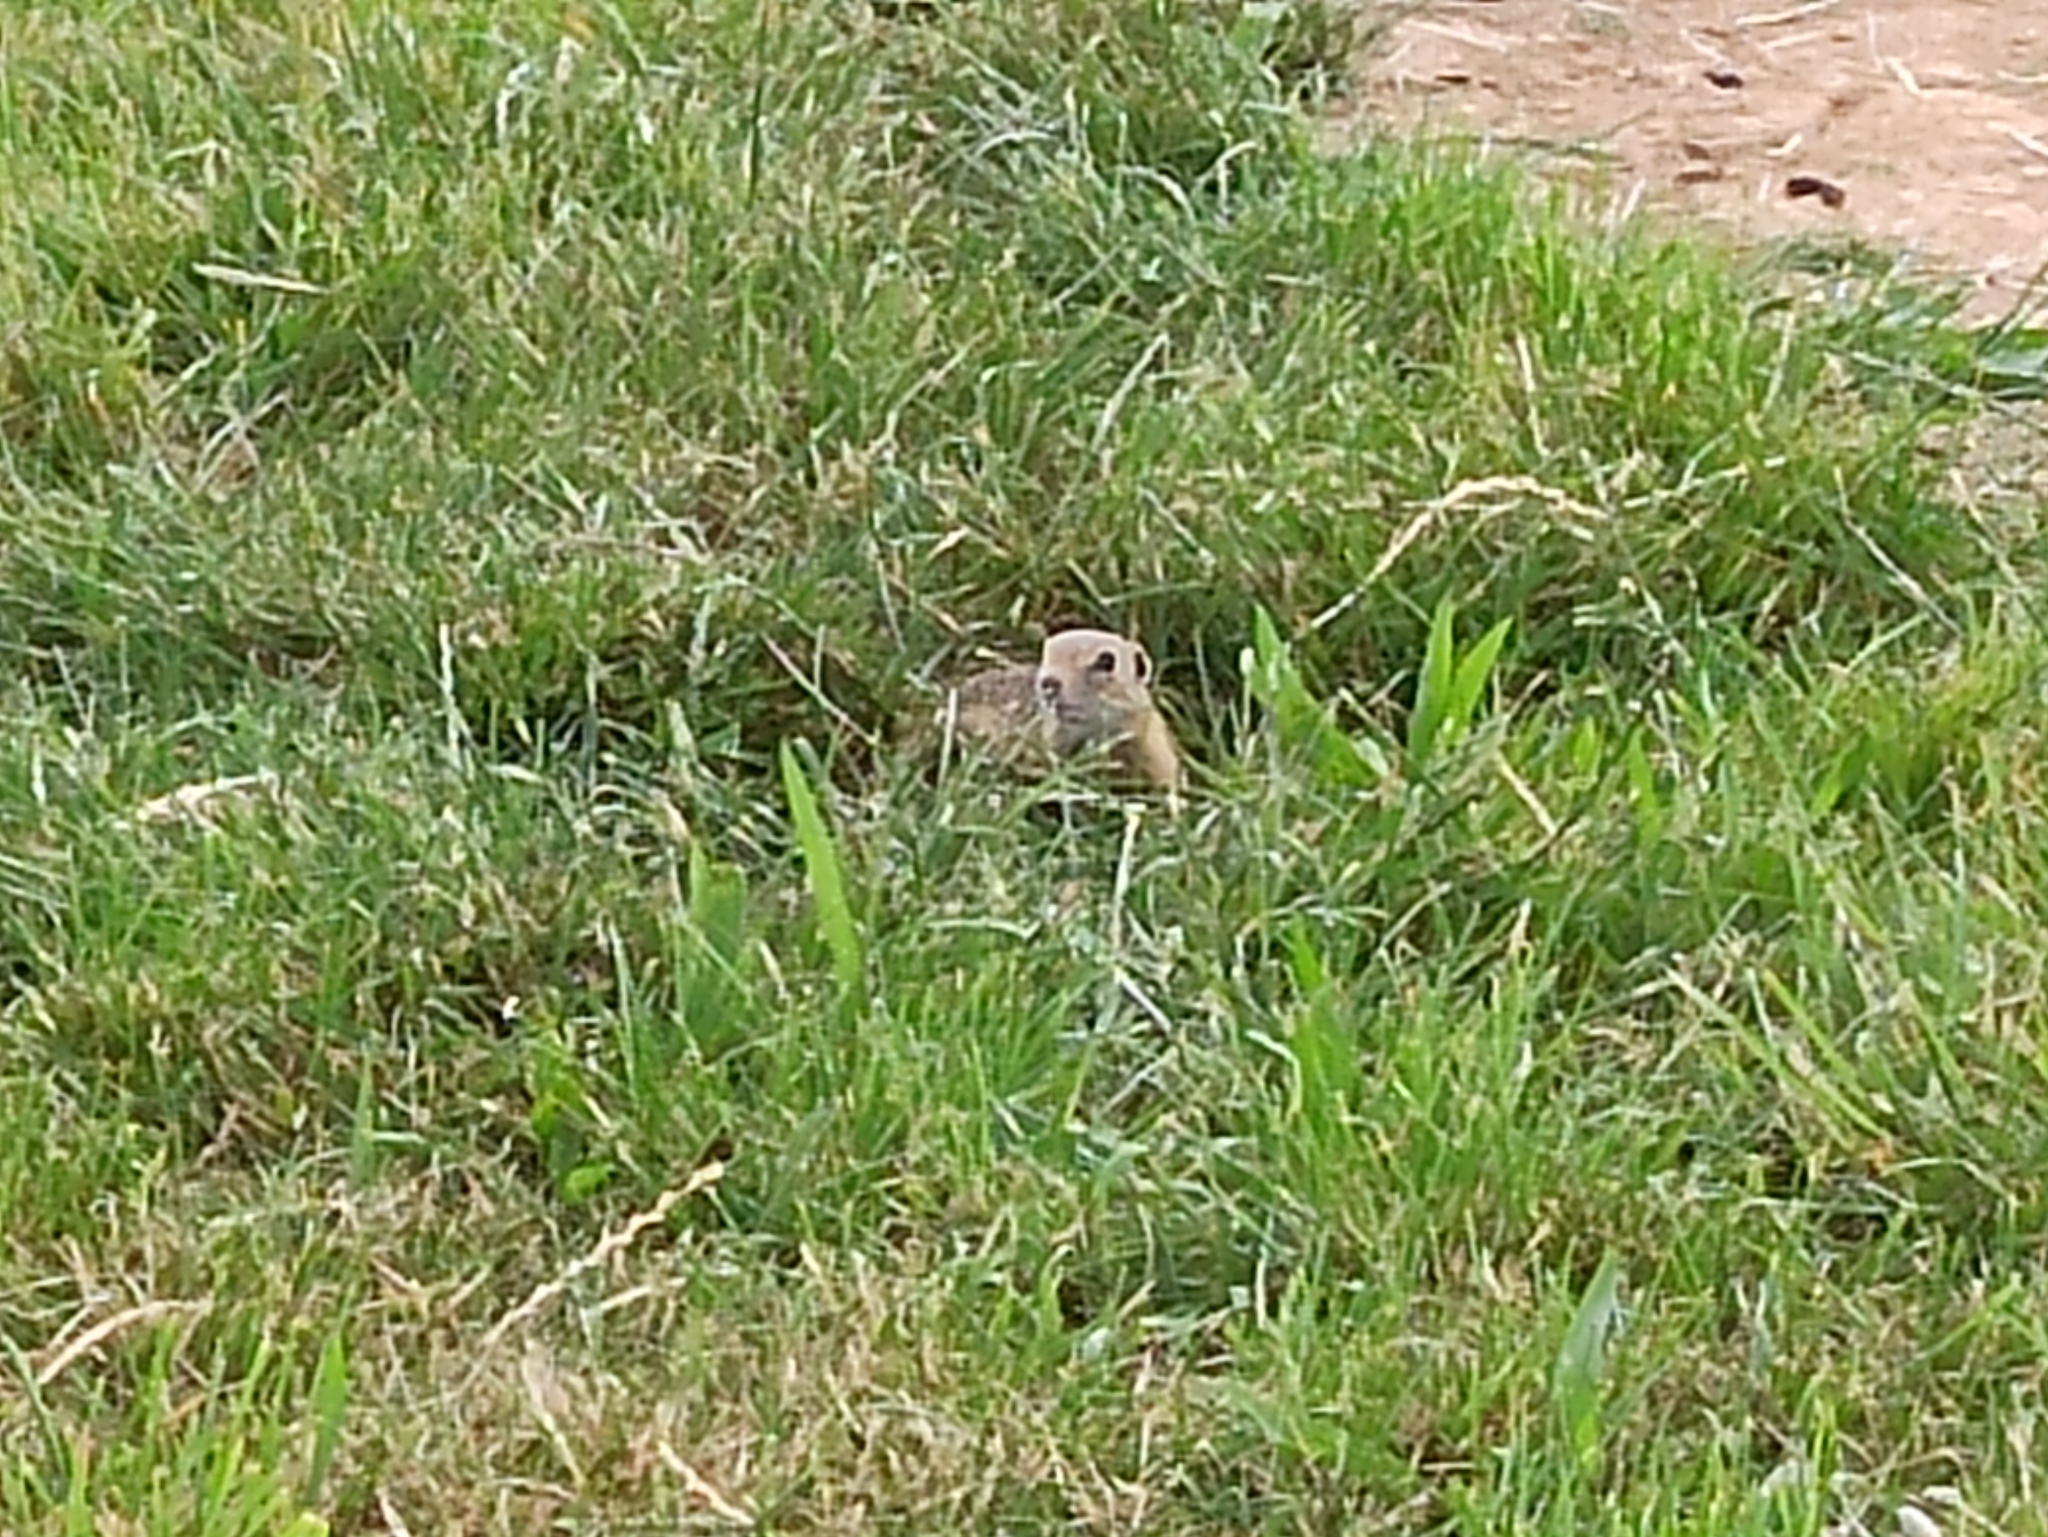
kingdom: Animalia
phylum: Chordata
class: Mammalia
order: Rodentia
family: Sciuridae
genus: Spermophilus
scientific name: Spermophilus citellus
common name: European ground squirrel
